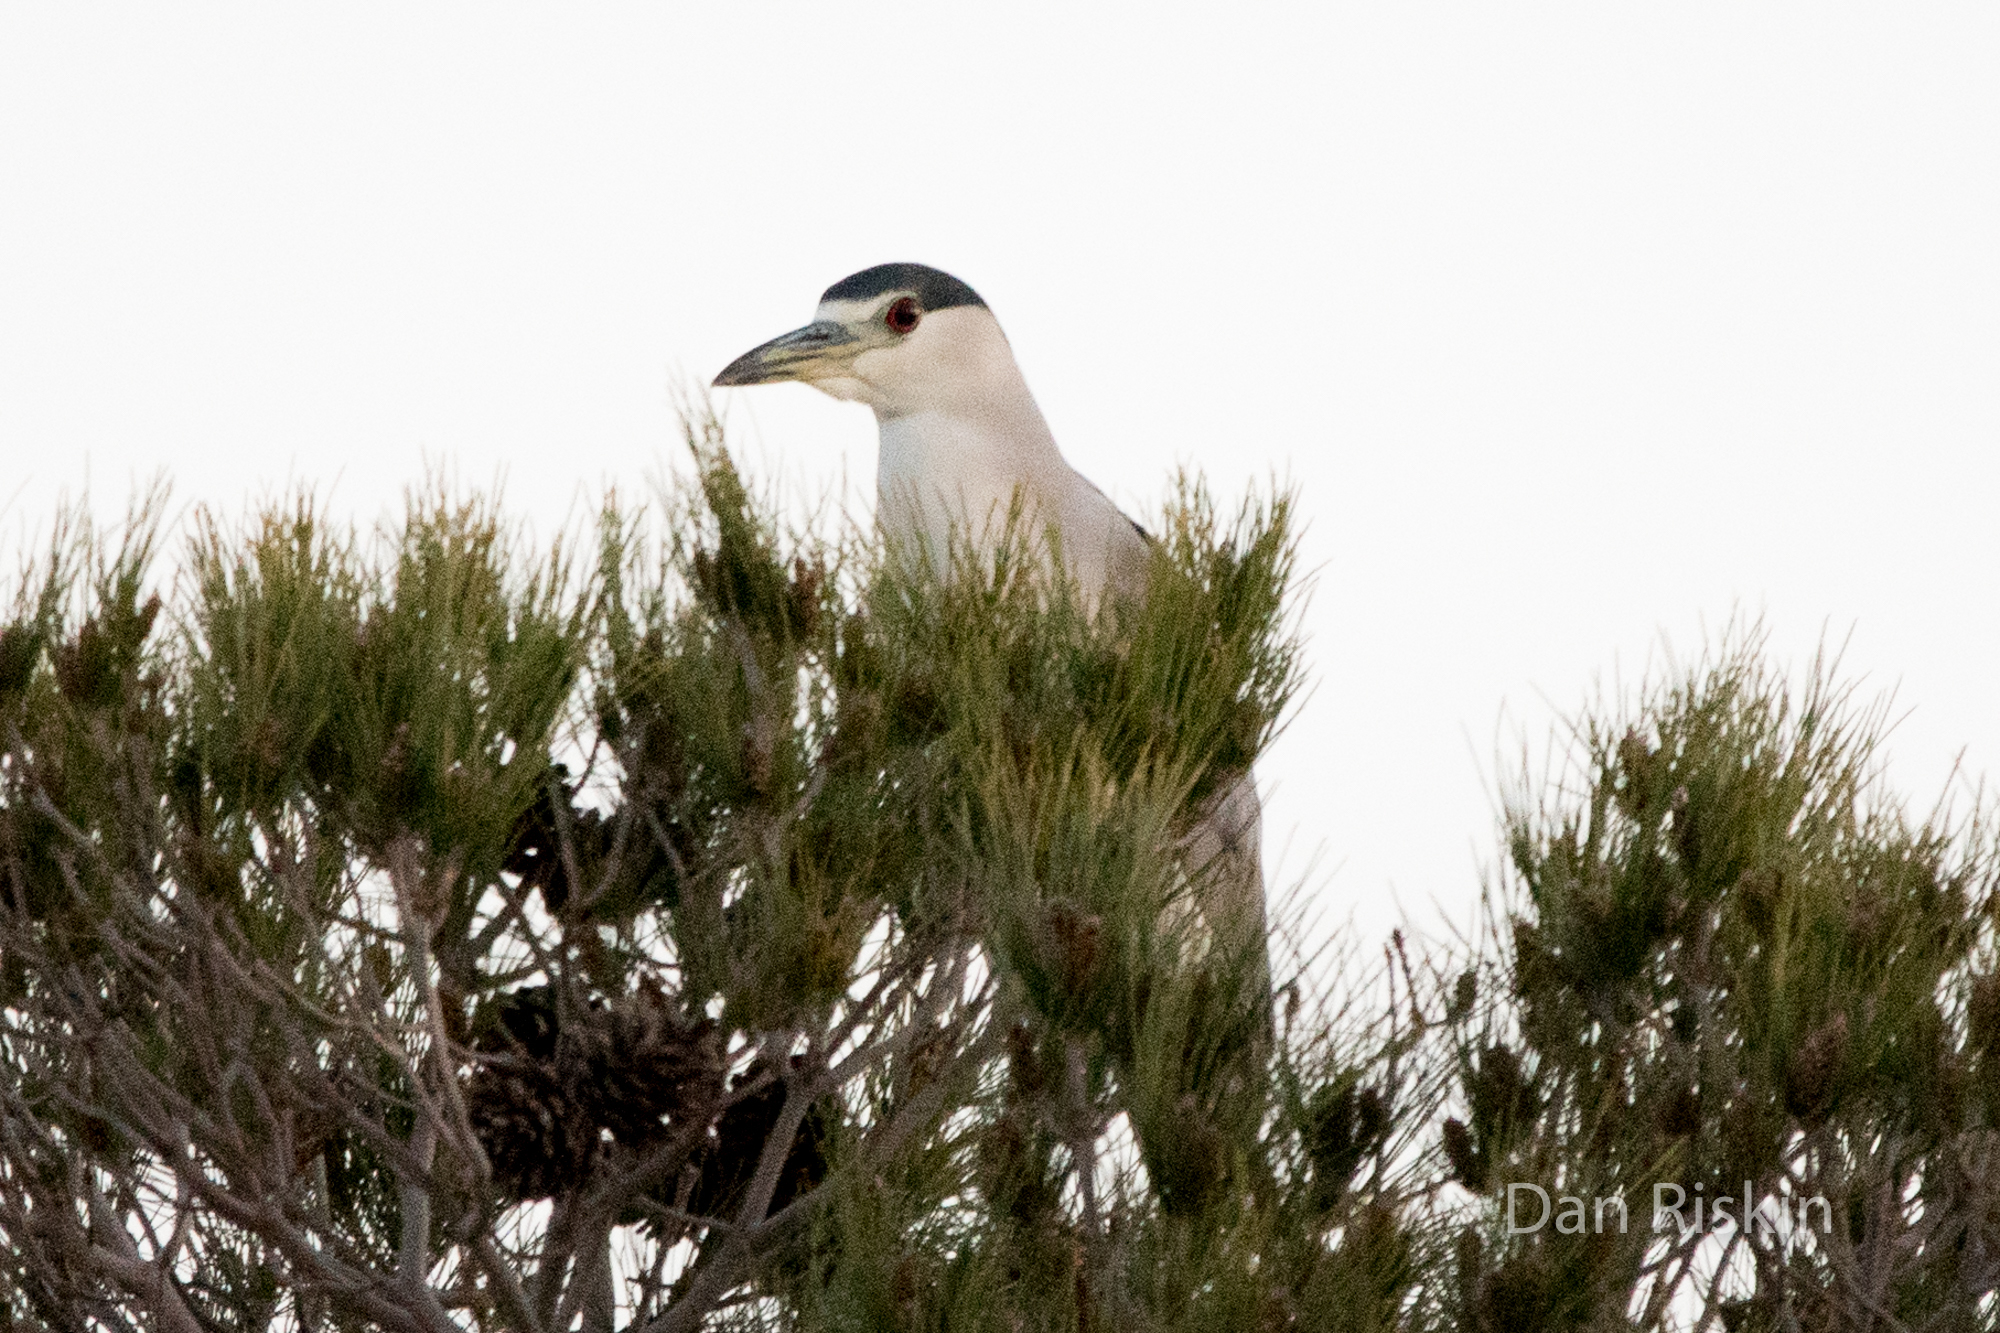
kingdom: Animalia
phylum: Chordata
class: Aves
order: Pelecaniformes
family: Ardeidae
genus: Nycticorax
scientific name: Nycticorax nycticorax
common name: Black-crowned night heron
